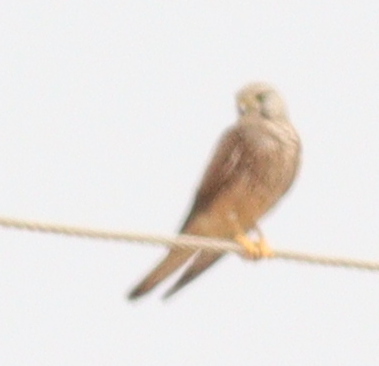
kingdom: Animalia
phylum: Chordata
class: Aves
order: Falconiformes
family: Falconidae
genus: Falco
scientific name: Falco tinnunculus
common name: Common kestrel
